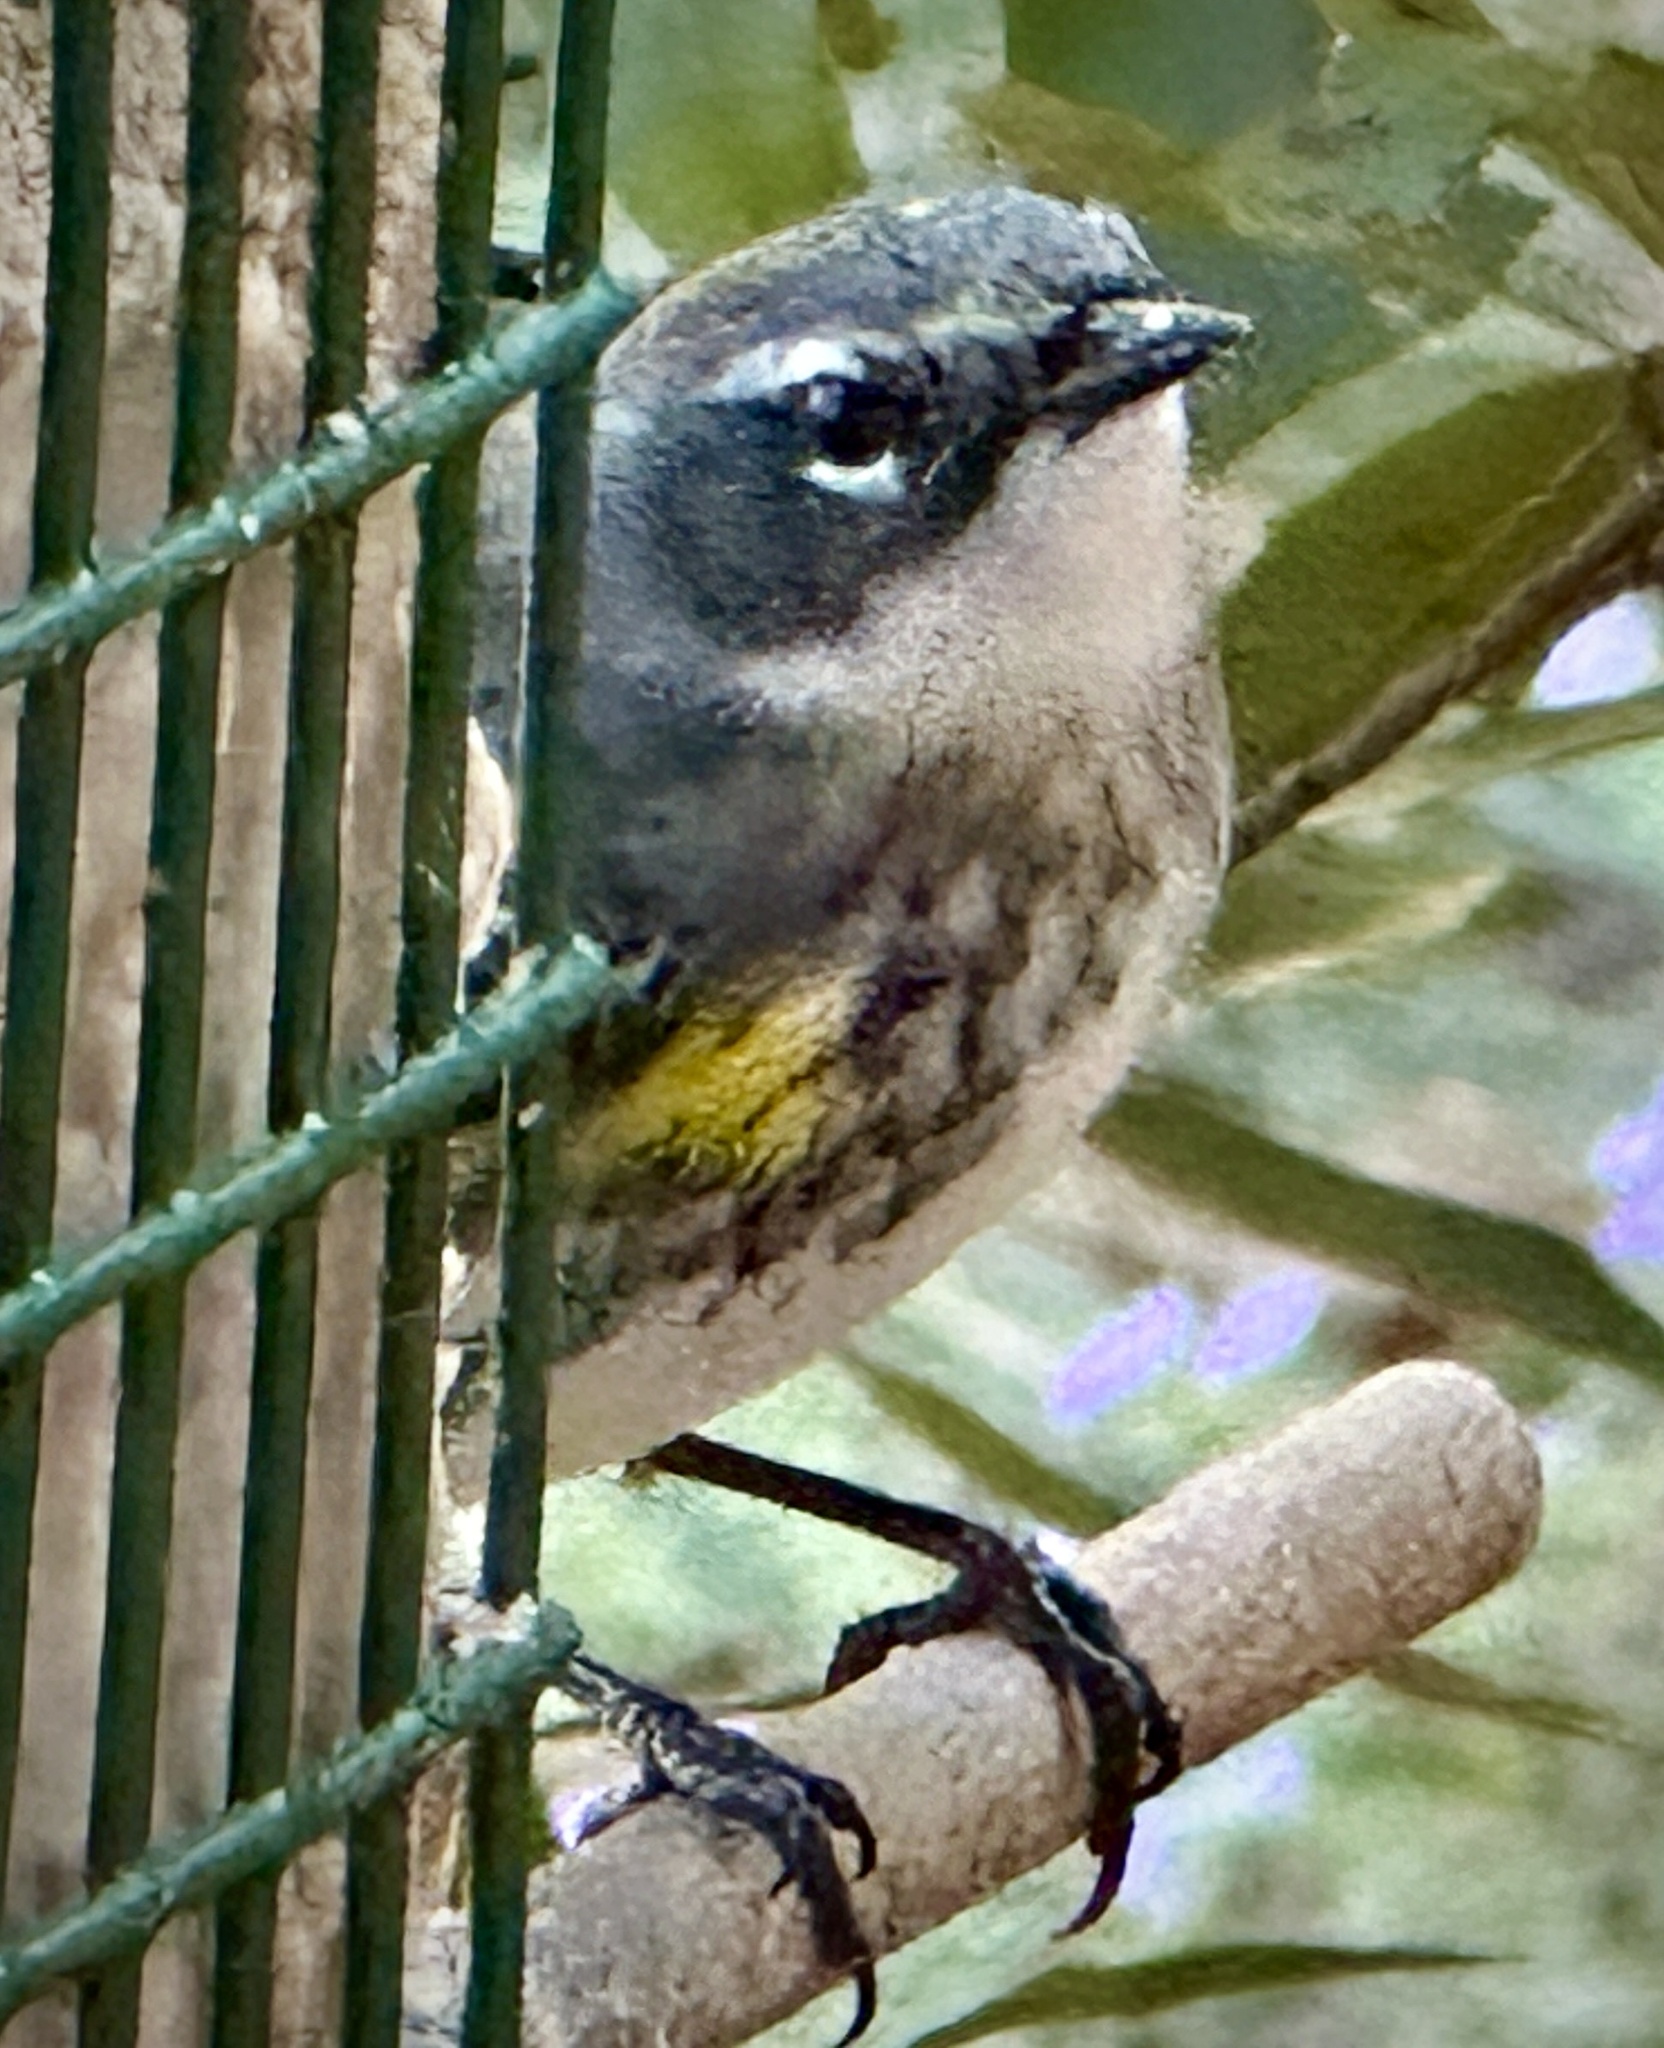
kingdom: Animalia
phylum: Chordata
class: Aves
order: Passeriformes
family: Parulidae
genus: Setophaga
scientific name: Setophaga coronata
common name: Myrtle warbler
